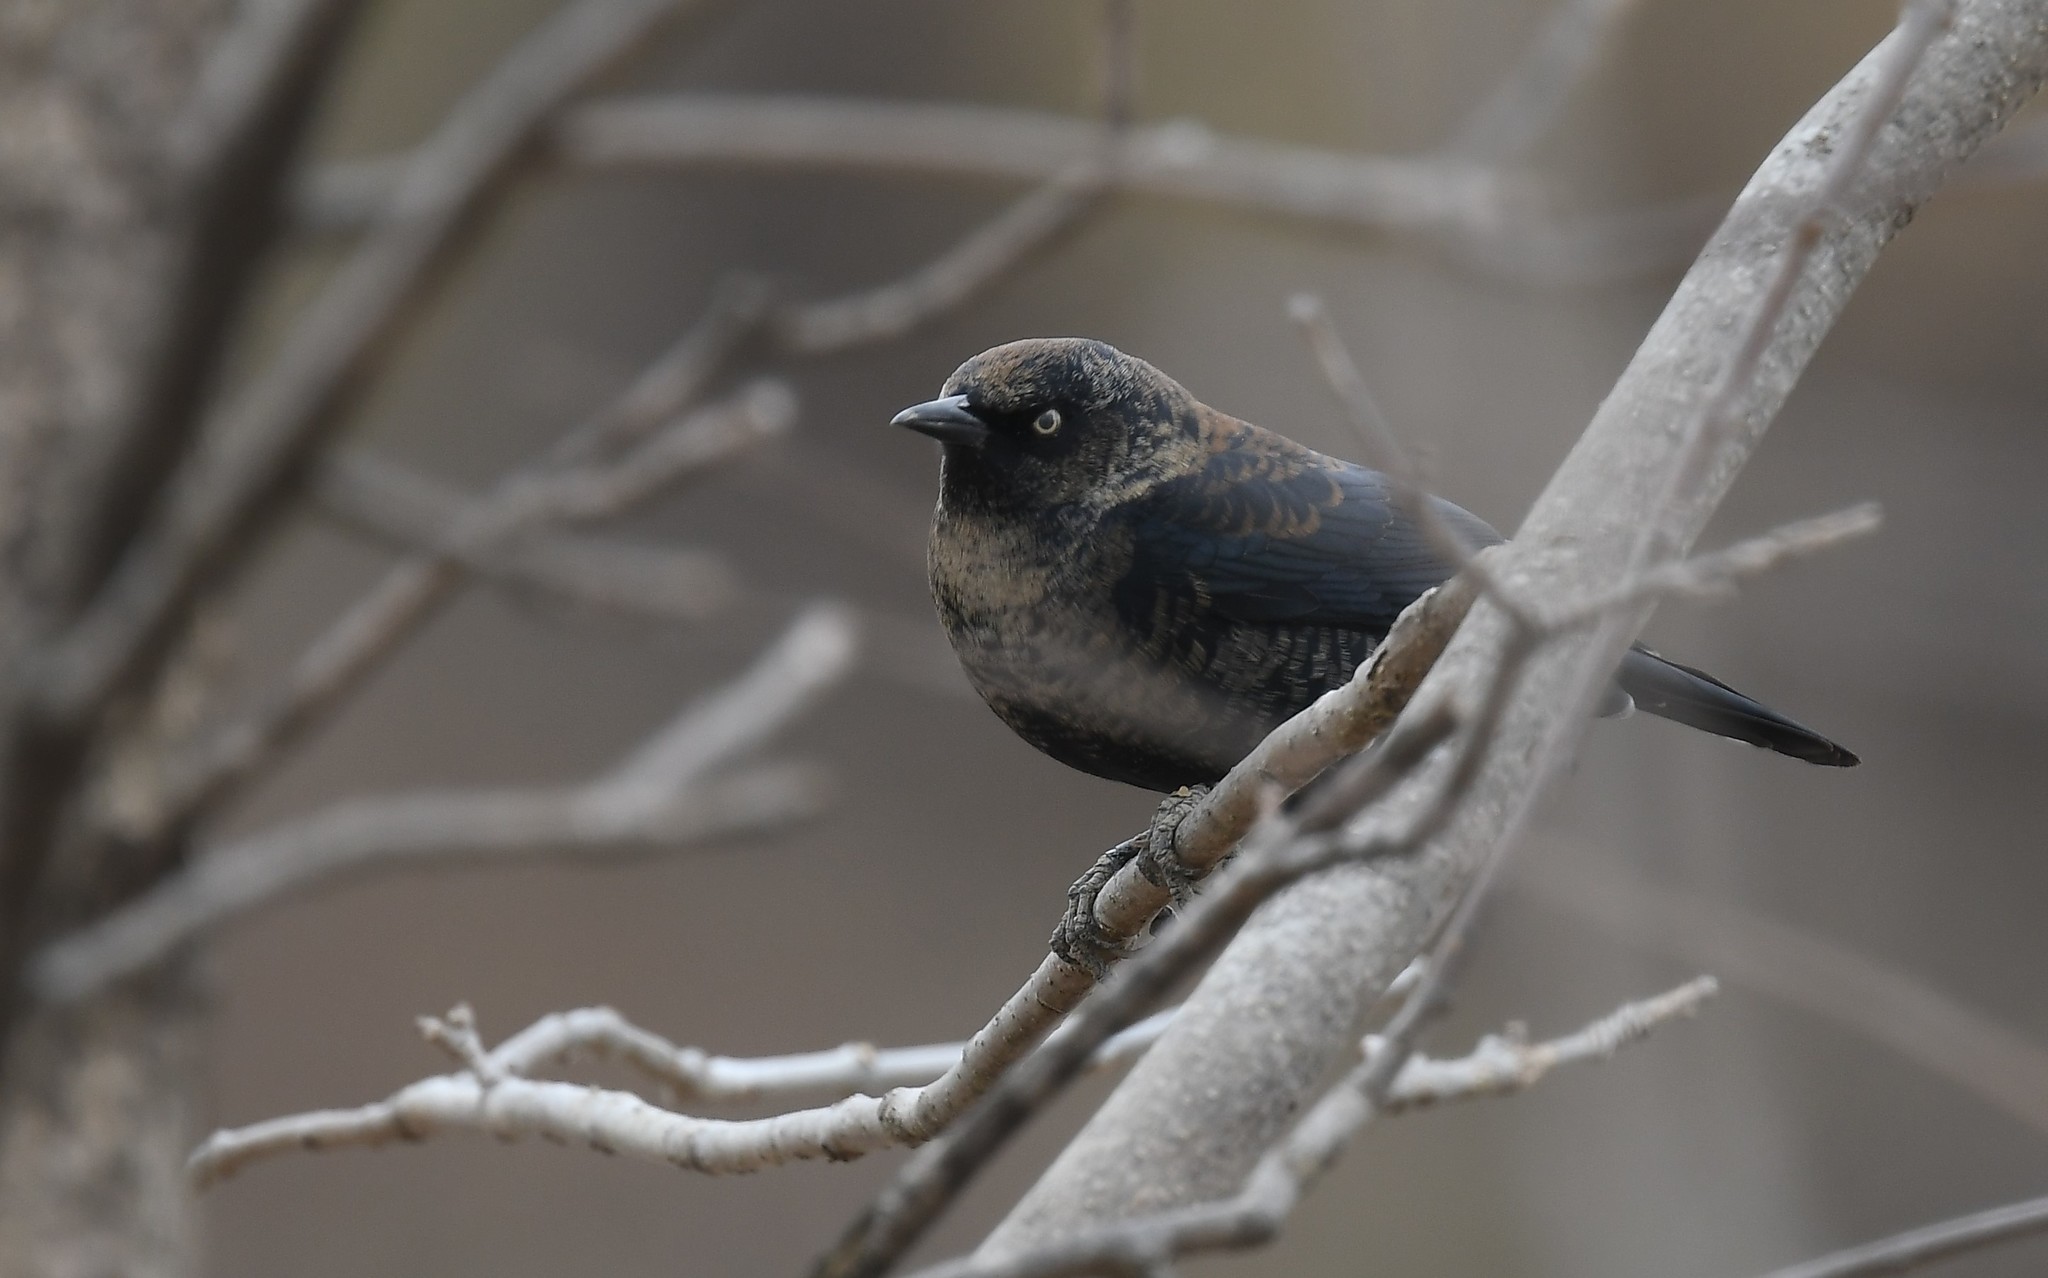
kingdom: Animalia
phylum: Chordata
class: Aves
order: Passeriformes
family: Icteridae
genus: Euphagus
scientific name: Euphagus carolinus
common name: Rusty blackbird
